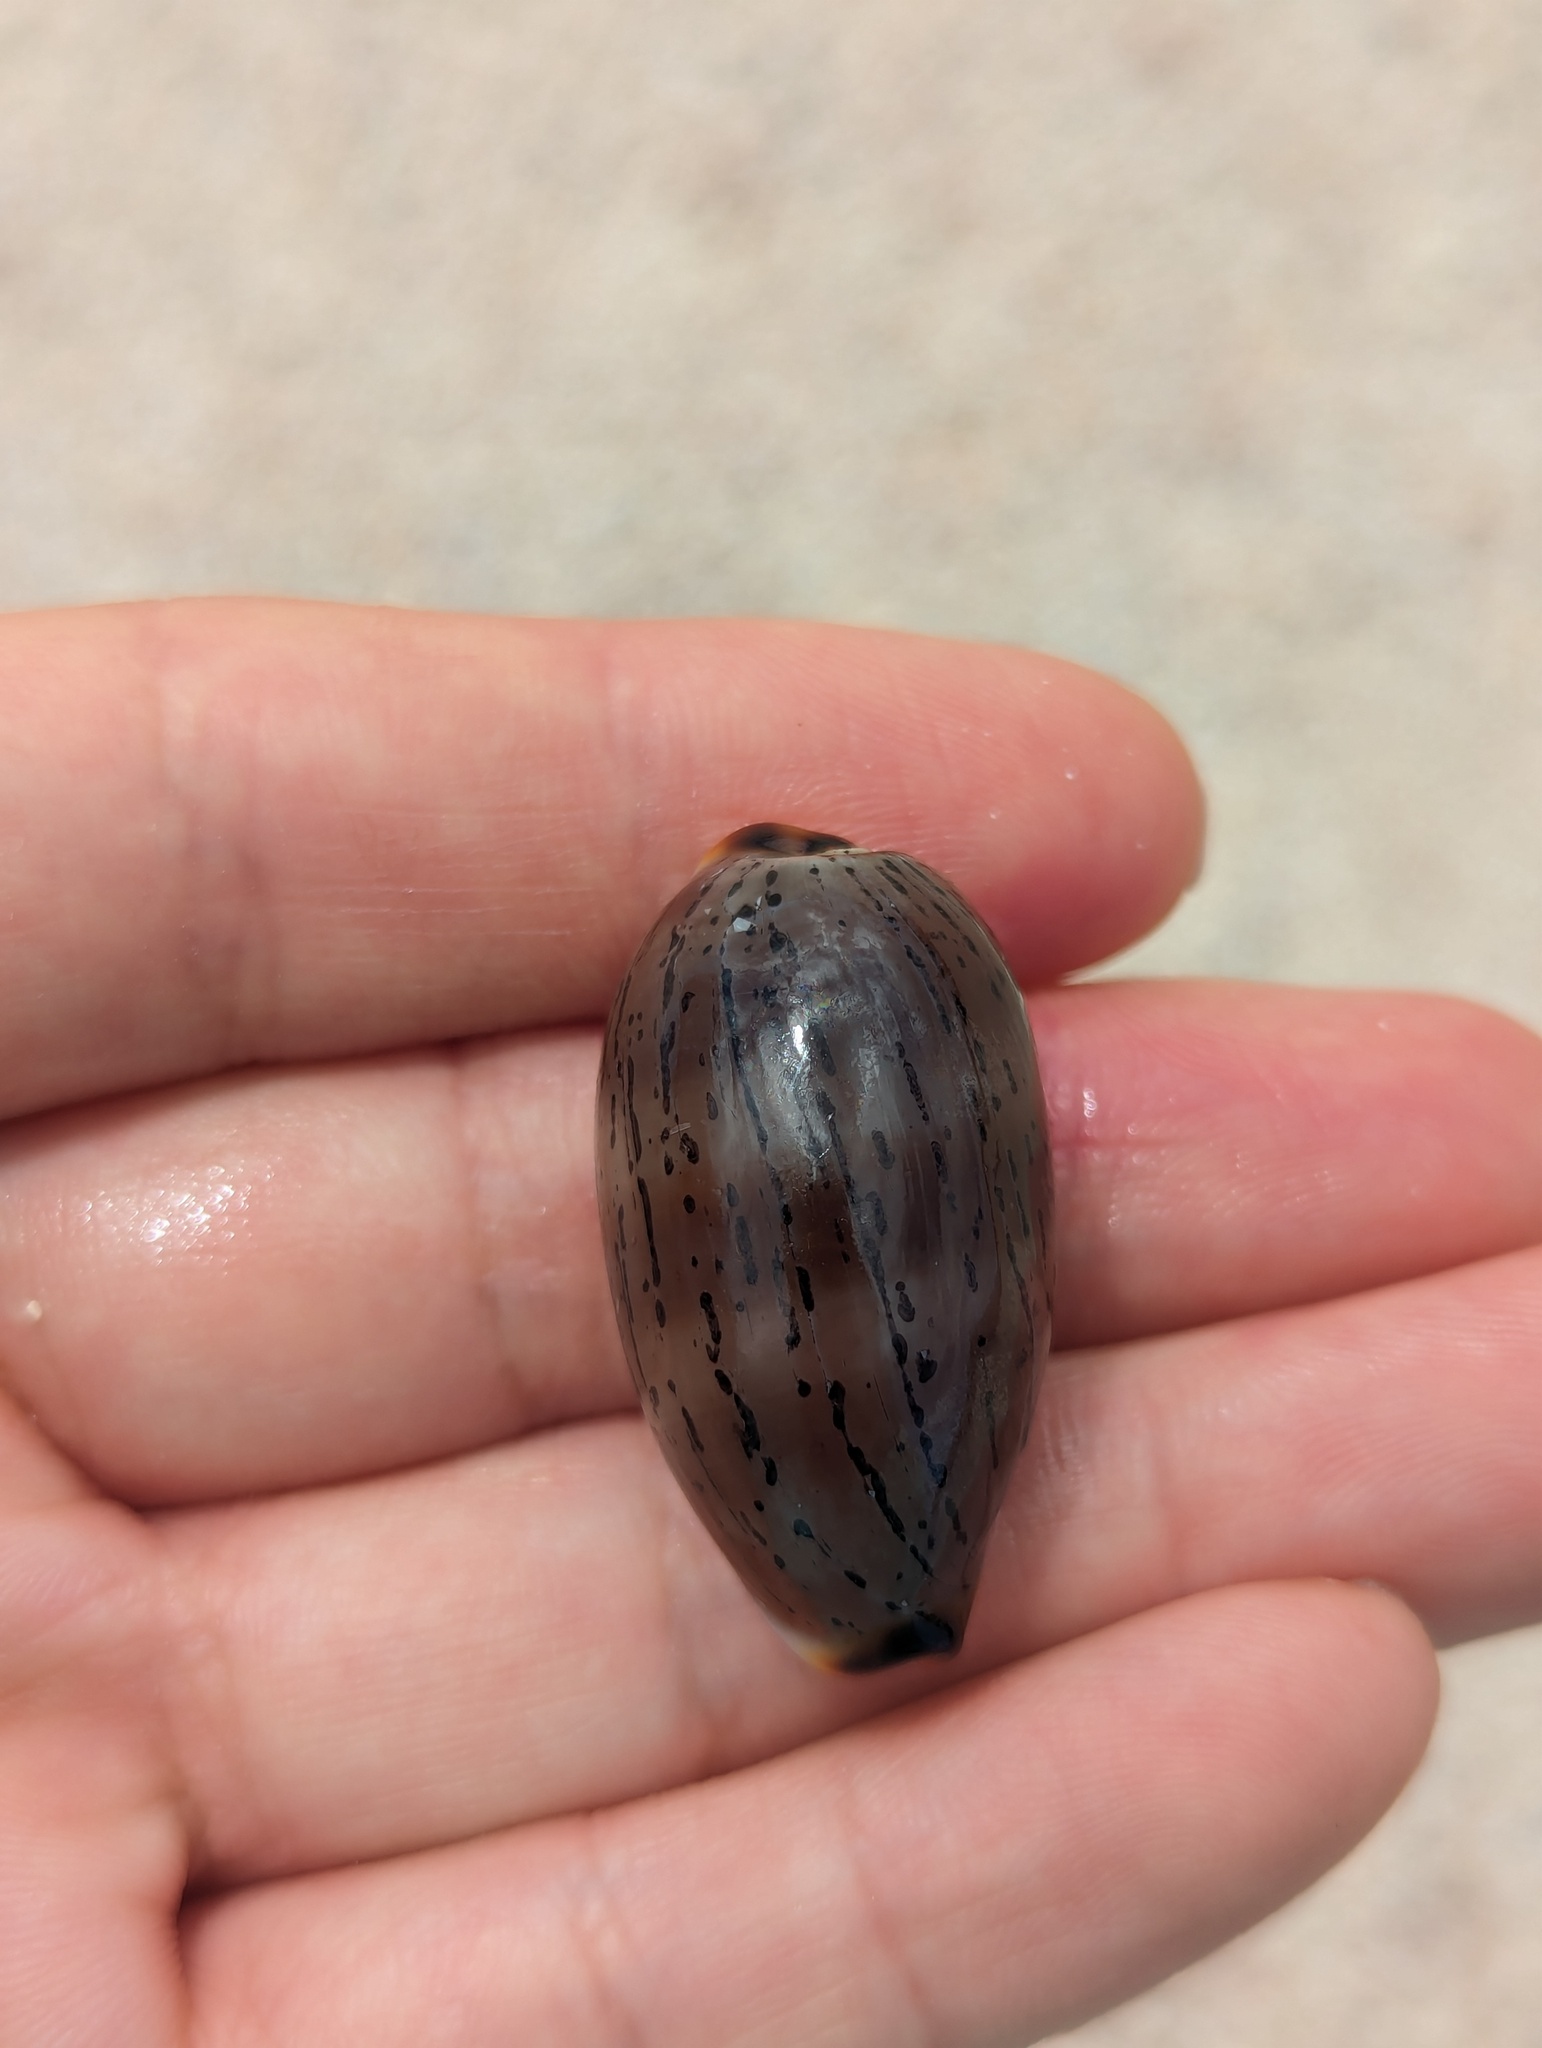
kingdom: Animalia
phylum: Mollusca
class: Gastropoda
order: Littorinimorpha
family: Cypraeidae
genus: Luria
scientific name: Luria isabellamexicana
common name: Mexican isabella cowry
